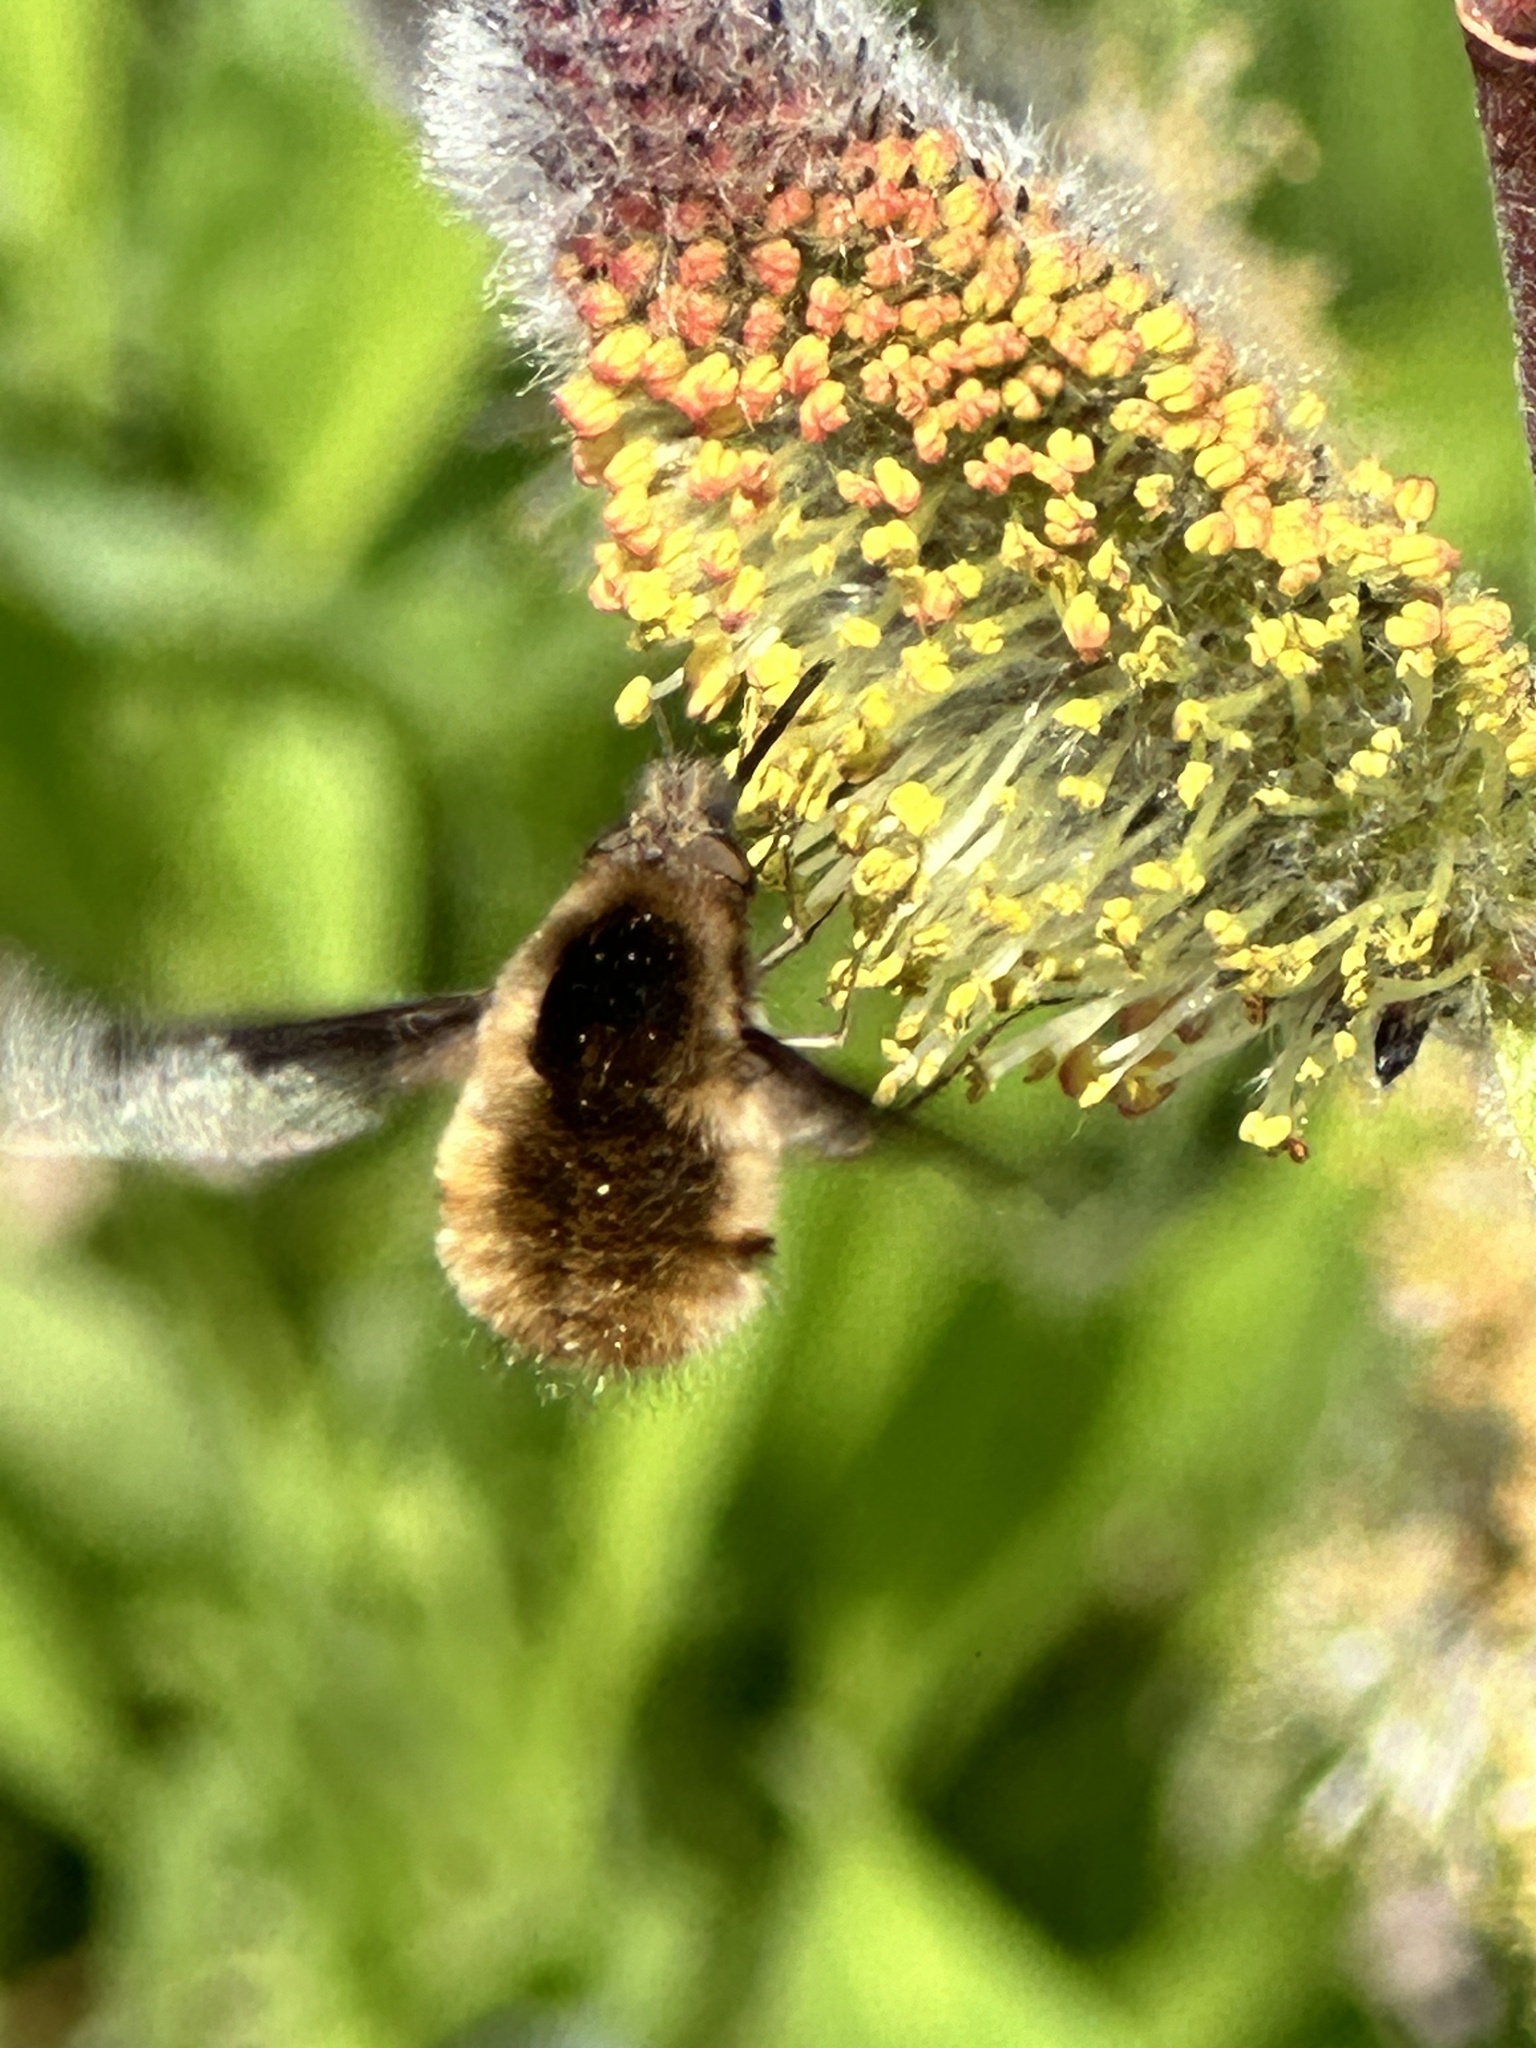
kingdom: Animalia
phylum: Arthropoda
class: Insecta
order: Diptera
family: Bombyliidae
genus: Bombylius
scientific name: Bombylius major
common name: Bee fly
